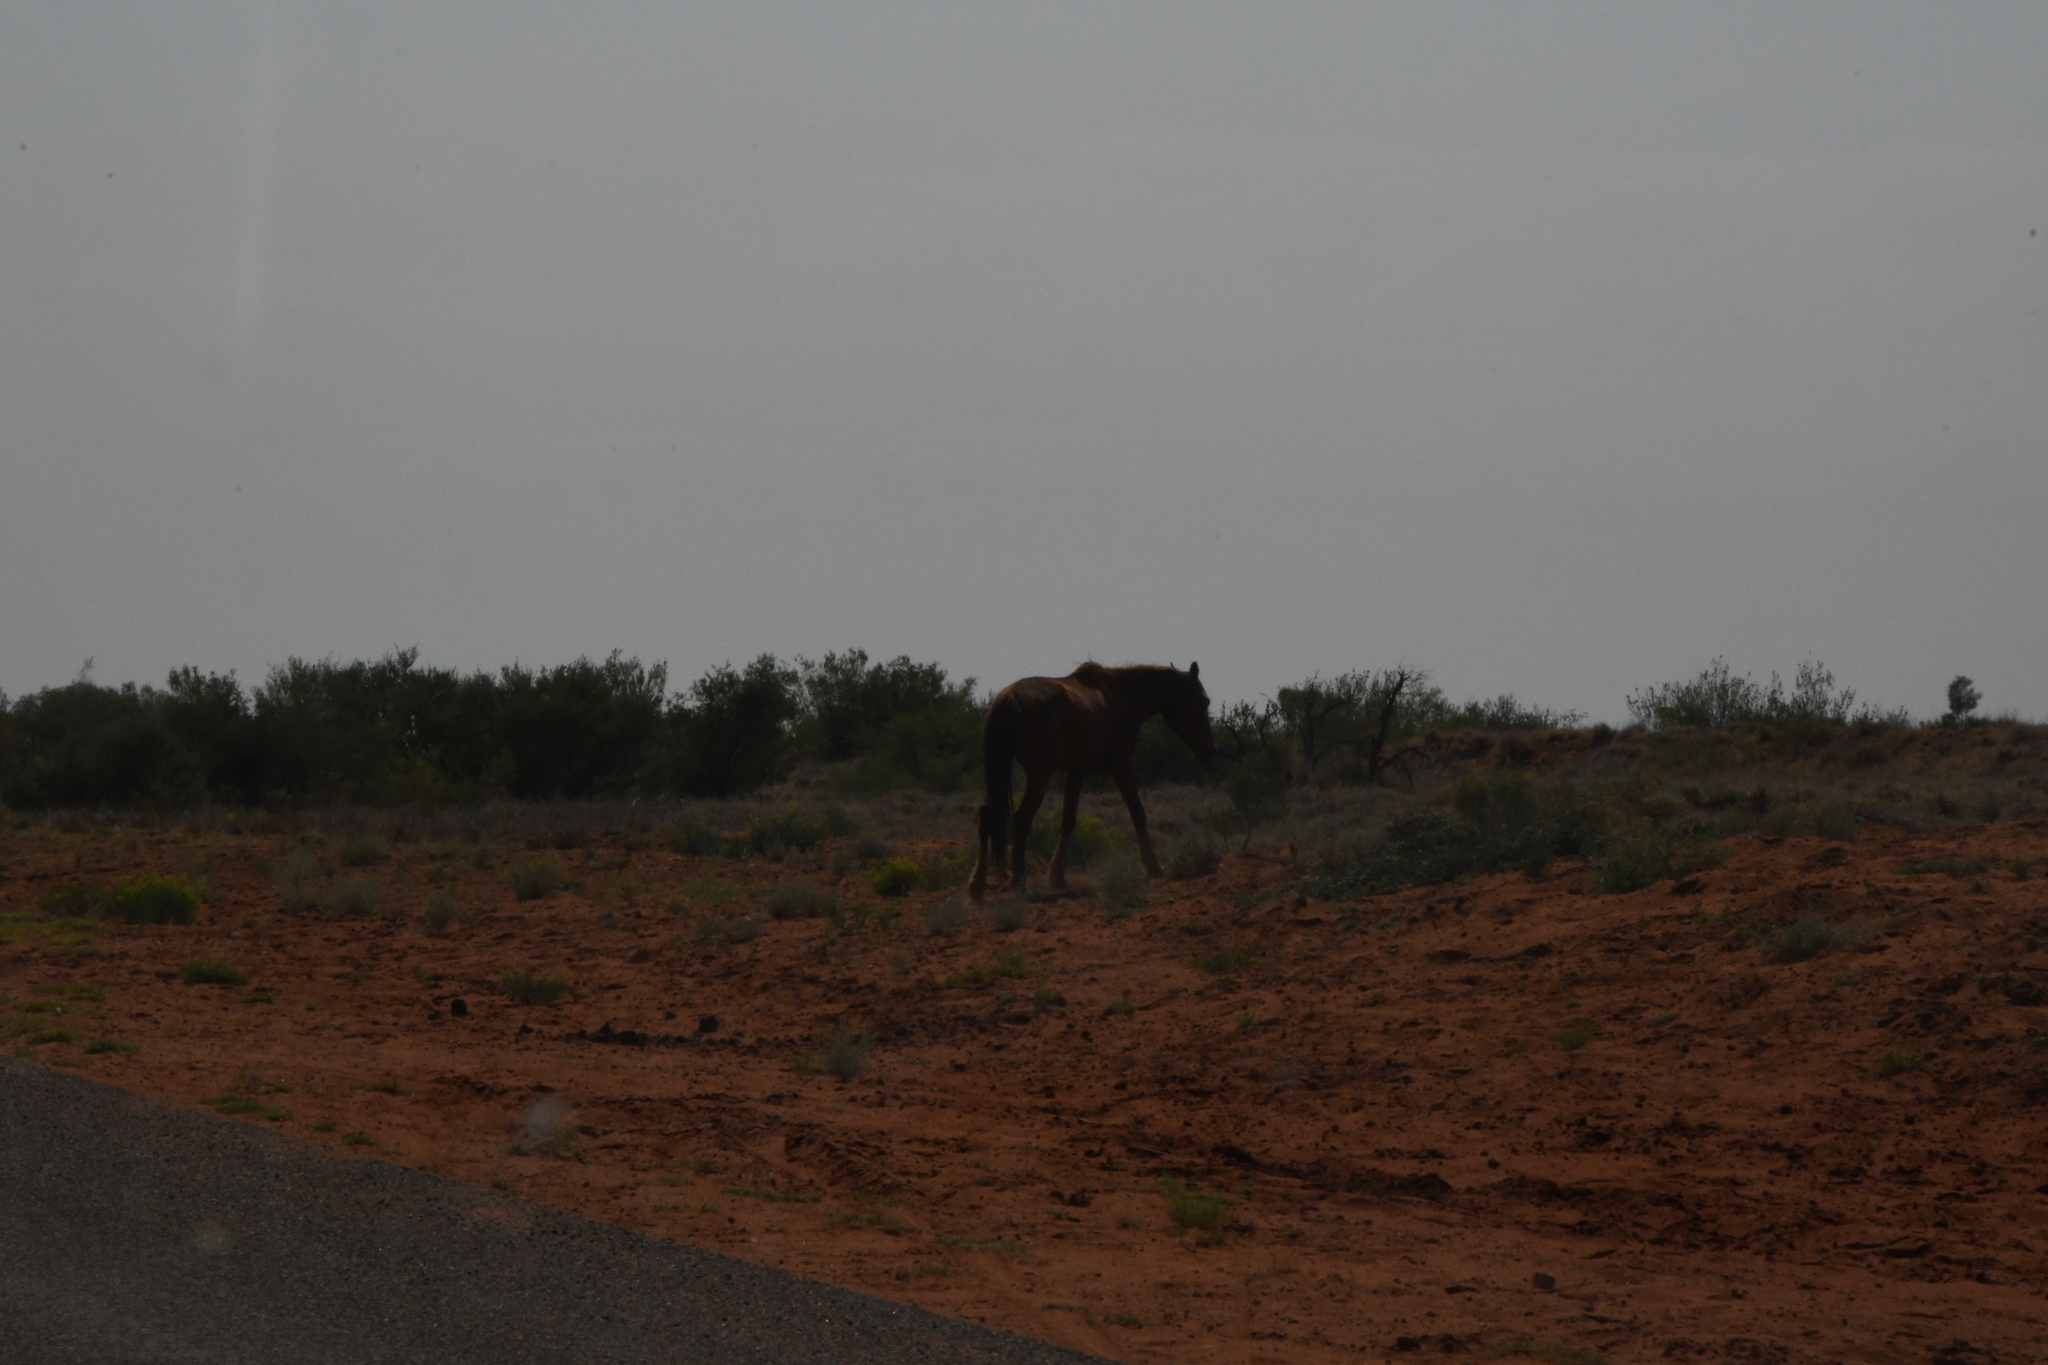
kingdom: Animalia
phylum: Chordata
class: Mammalia
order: Perissodactyla
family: Equidae
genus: Equus
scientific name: Equus caballus
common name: Horse
